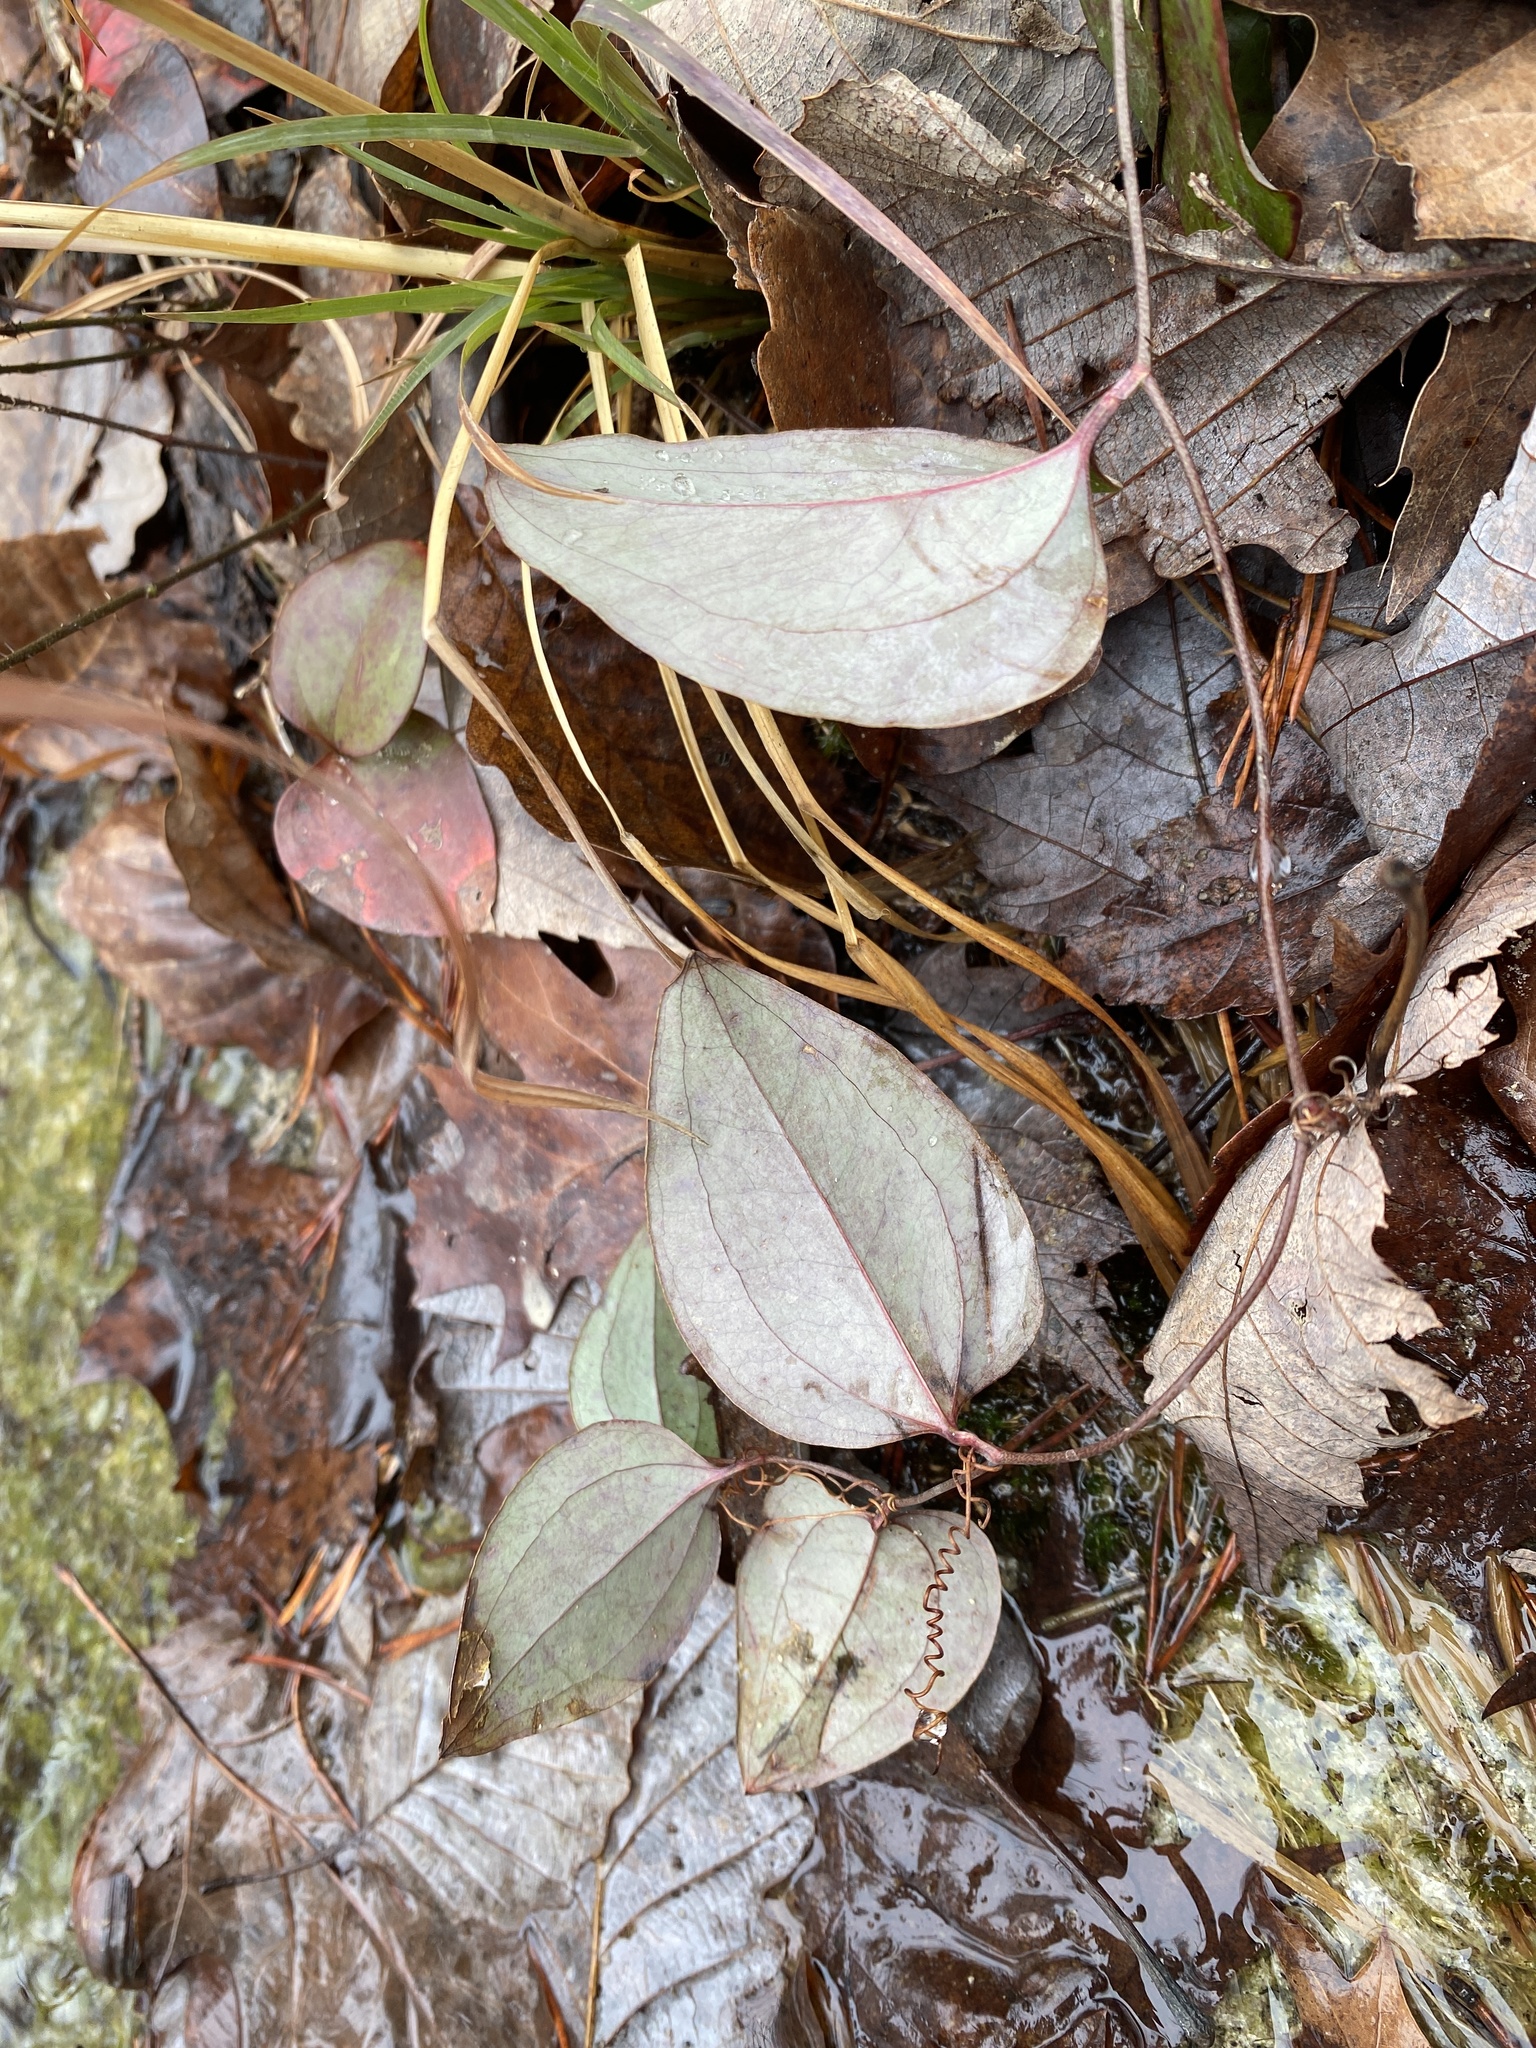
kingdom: Plantae
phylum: Tracheophyta
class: Liliopsida
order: Liliales
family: Smilacaceae
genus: Smilax
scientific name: Smilax glauca
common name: Cat greenbrier
